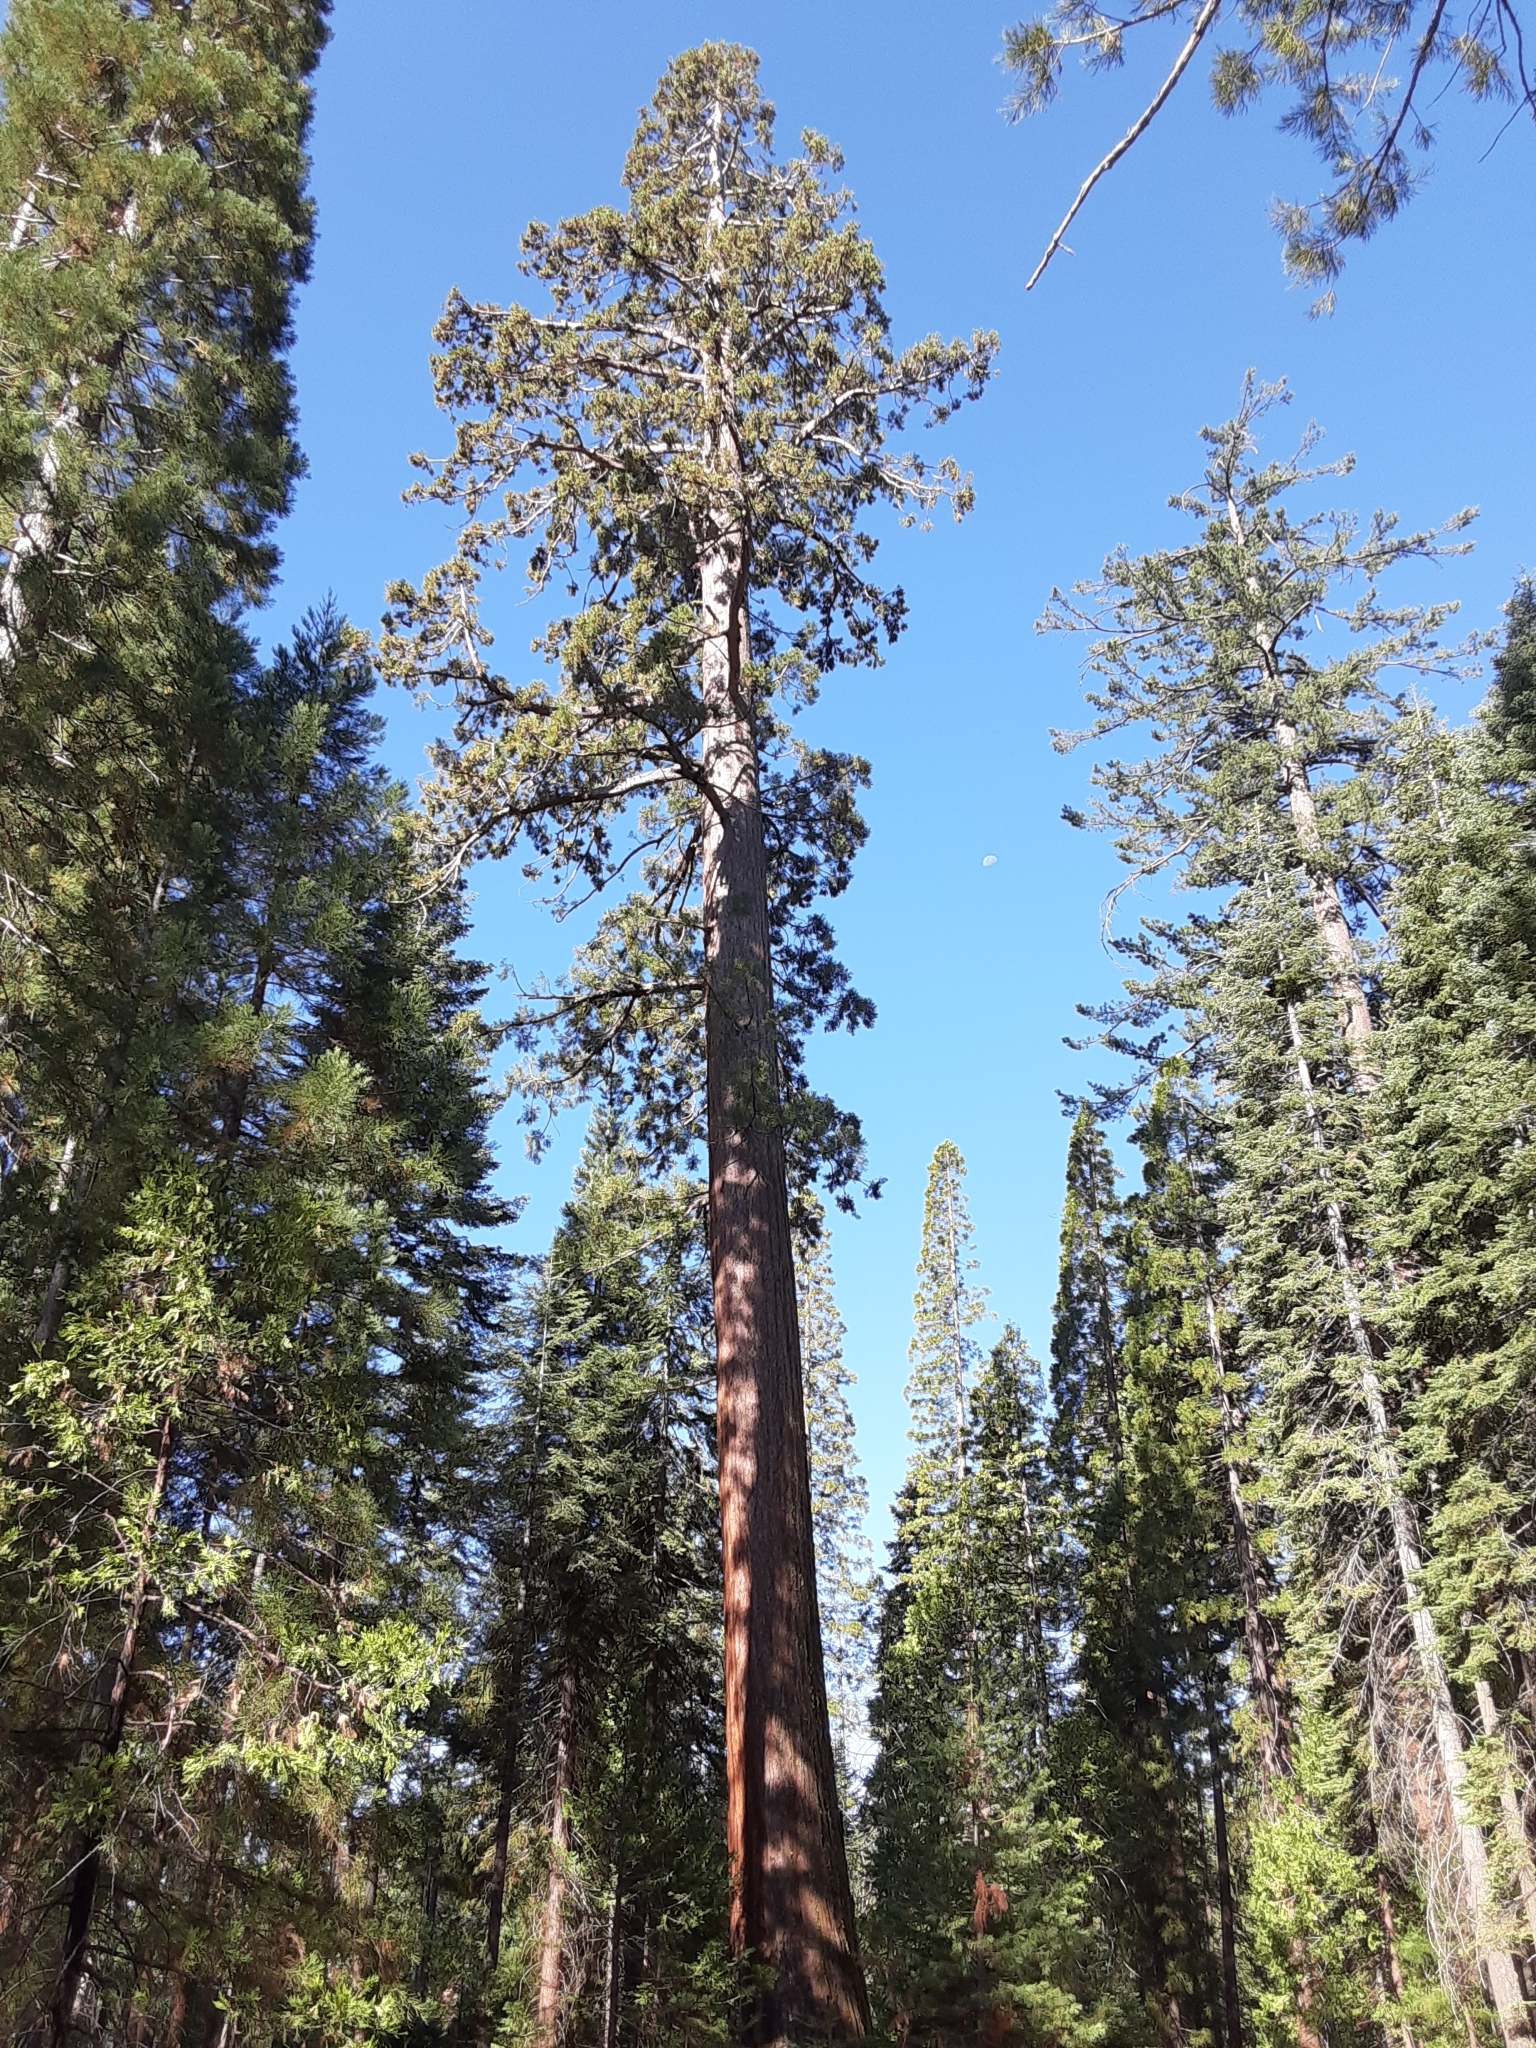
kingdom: Plantae
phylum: Tracheophyta
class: Pinopsida
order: Pinales
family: Cupressaceae
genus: Sequoiadendron
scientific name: Sequoiadendron giganteum
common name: Wellingtonia
